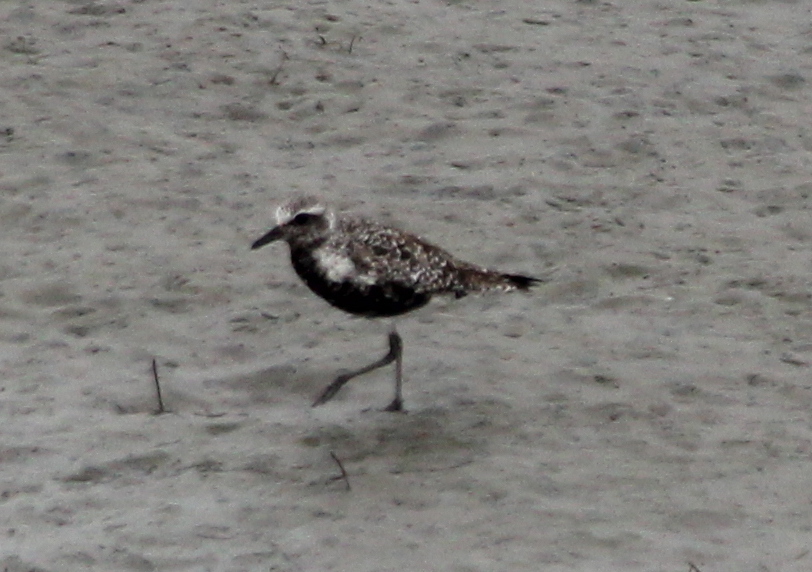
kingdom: Animalia
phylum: Chordata
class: Aves
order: Charadriiformes
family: Charadriidae
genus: Pluvialis
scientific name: Pluvialis squatarola
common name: Grey plover
